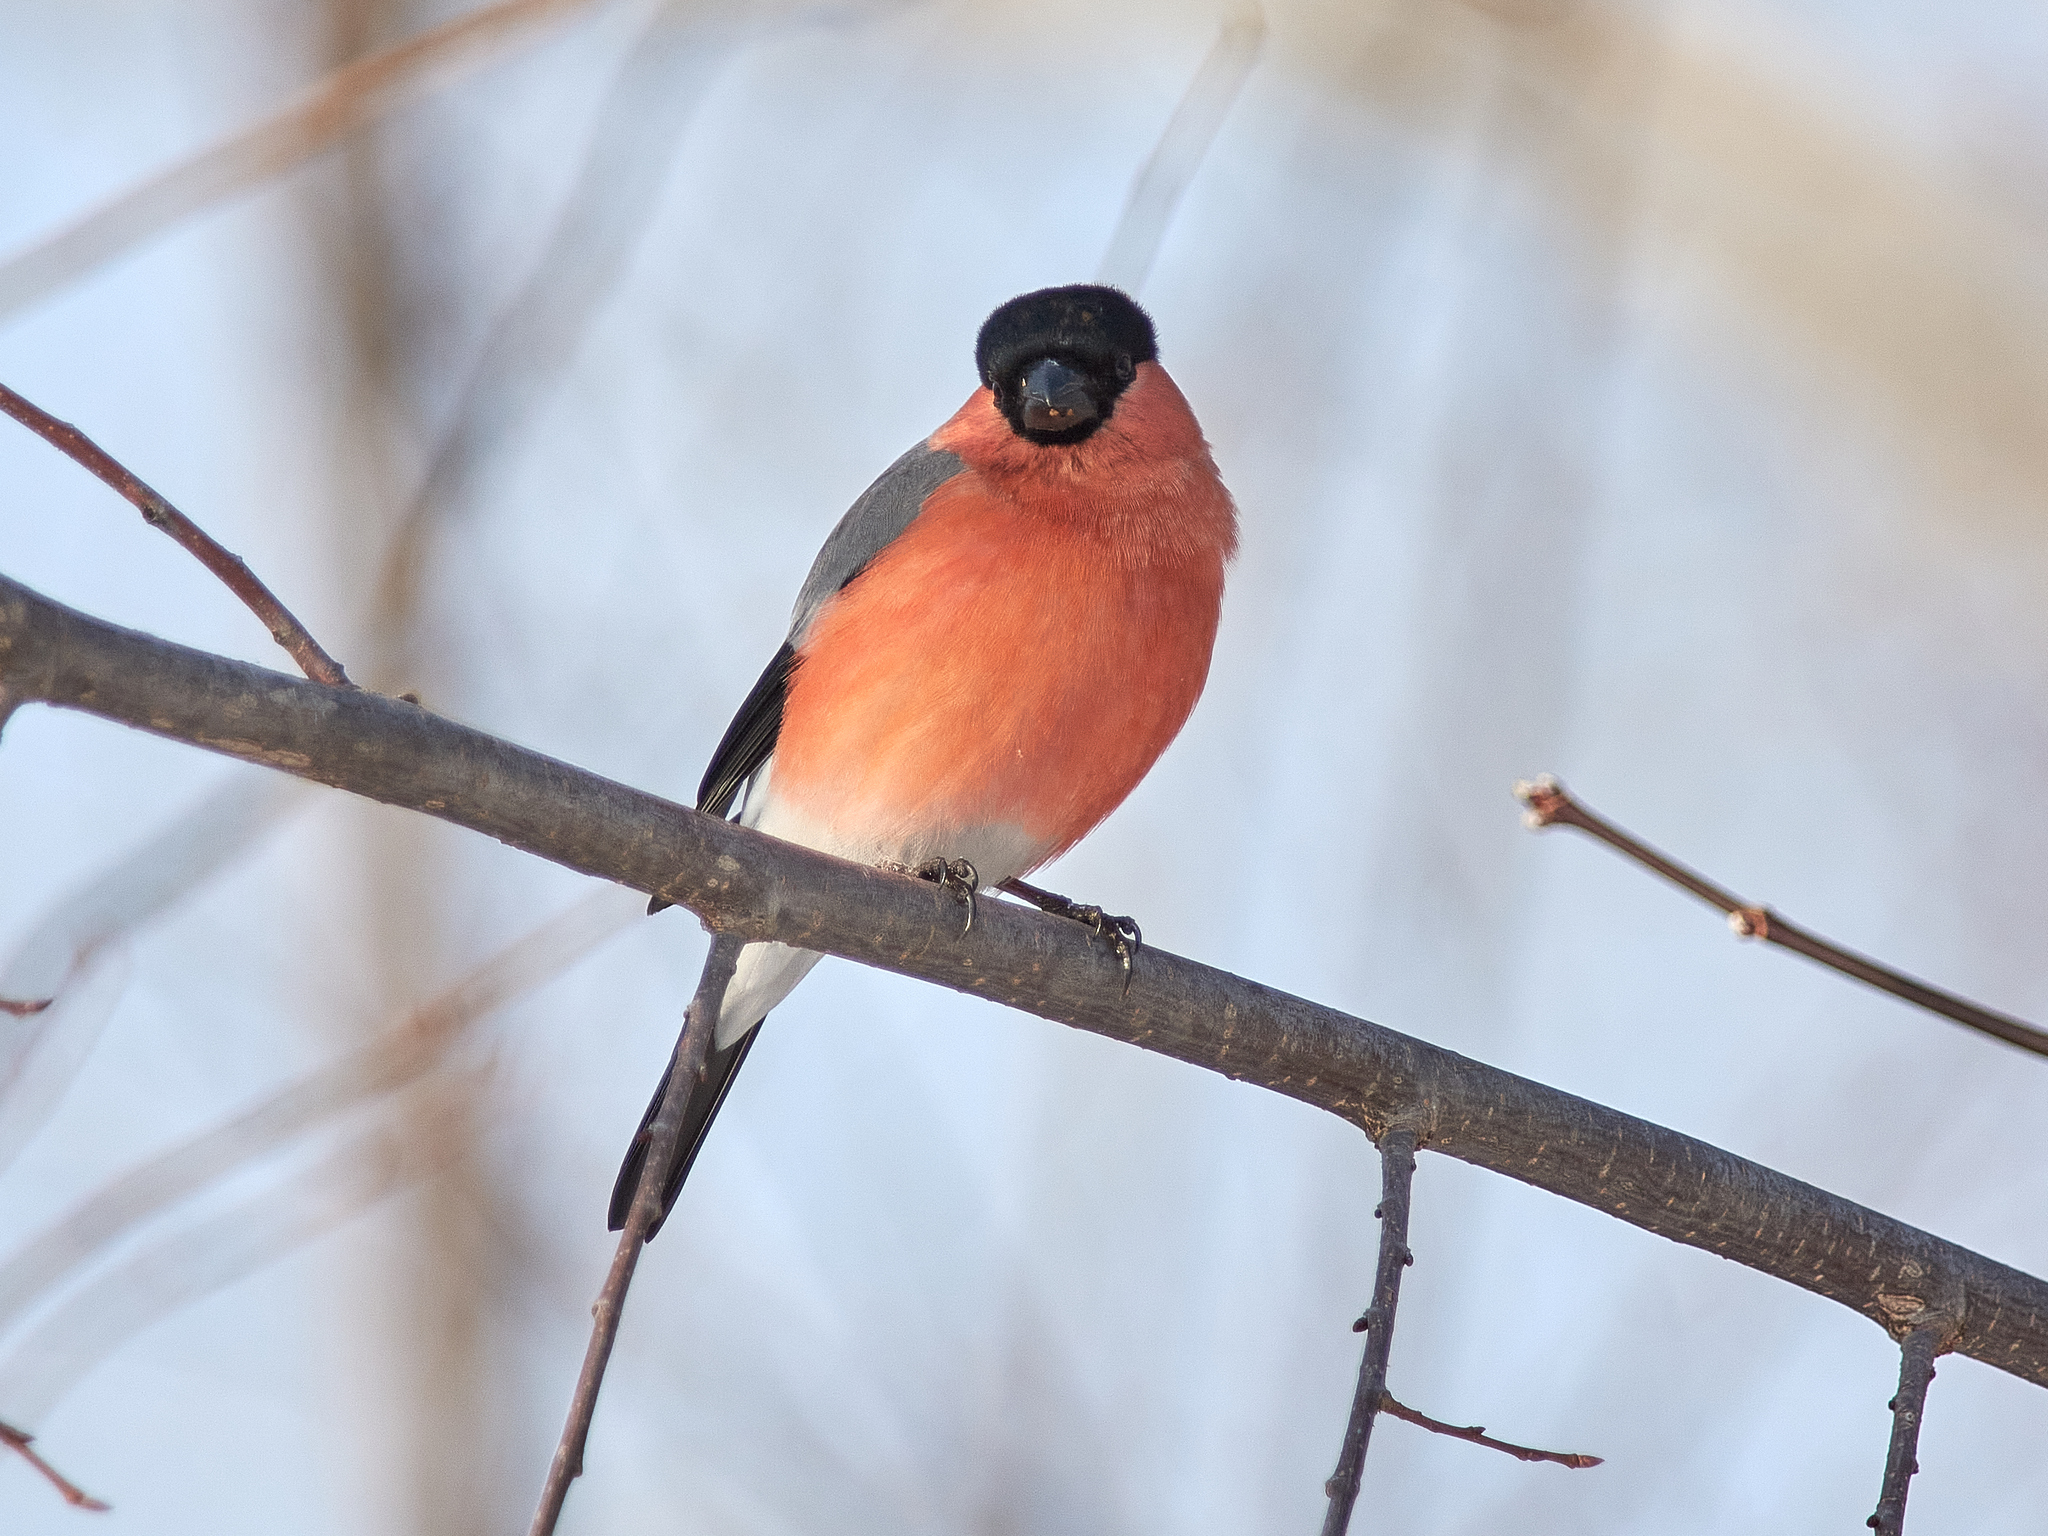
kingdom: Animalia
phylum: Chordata
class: Aves
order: Passeriformes
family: Fringillidae
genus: Pyrrhula
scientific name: Pyrrhula pyrrhula
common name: Eurasian bullfinch
